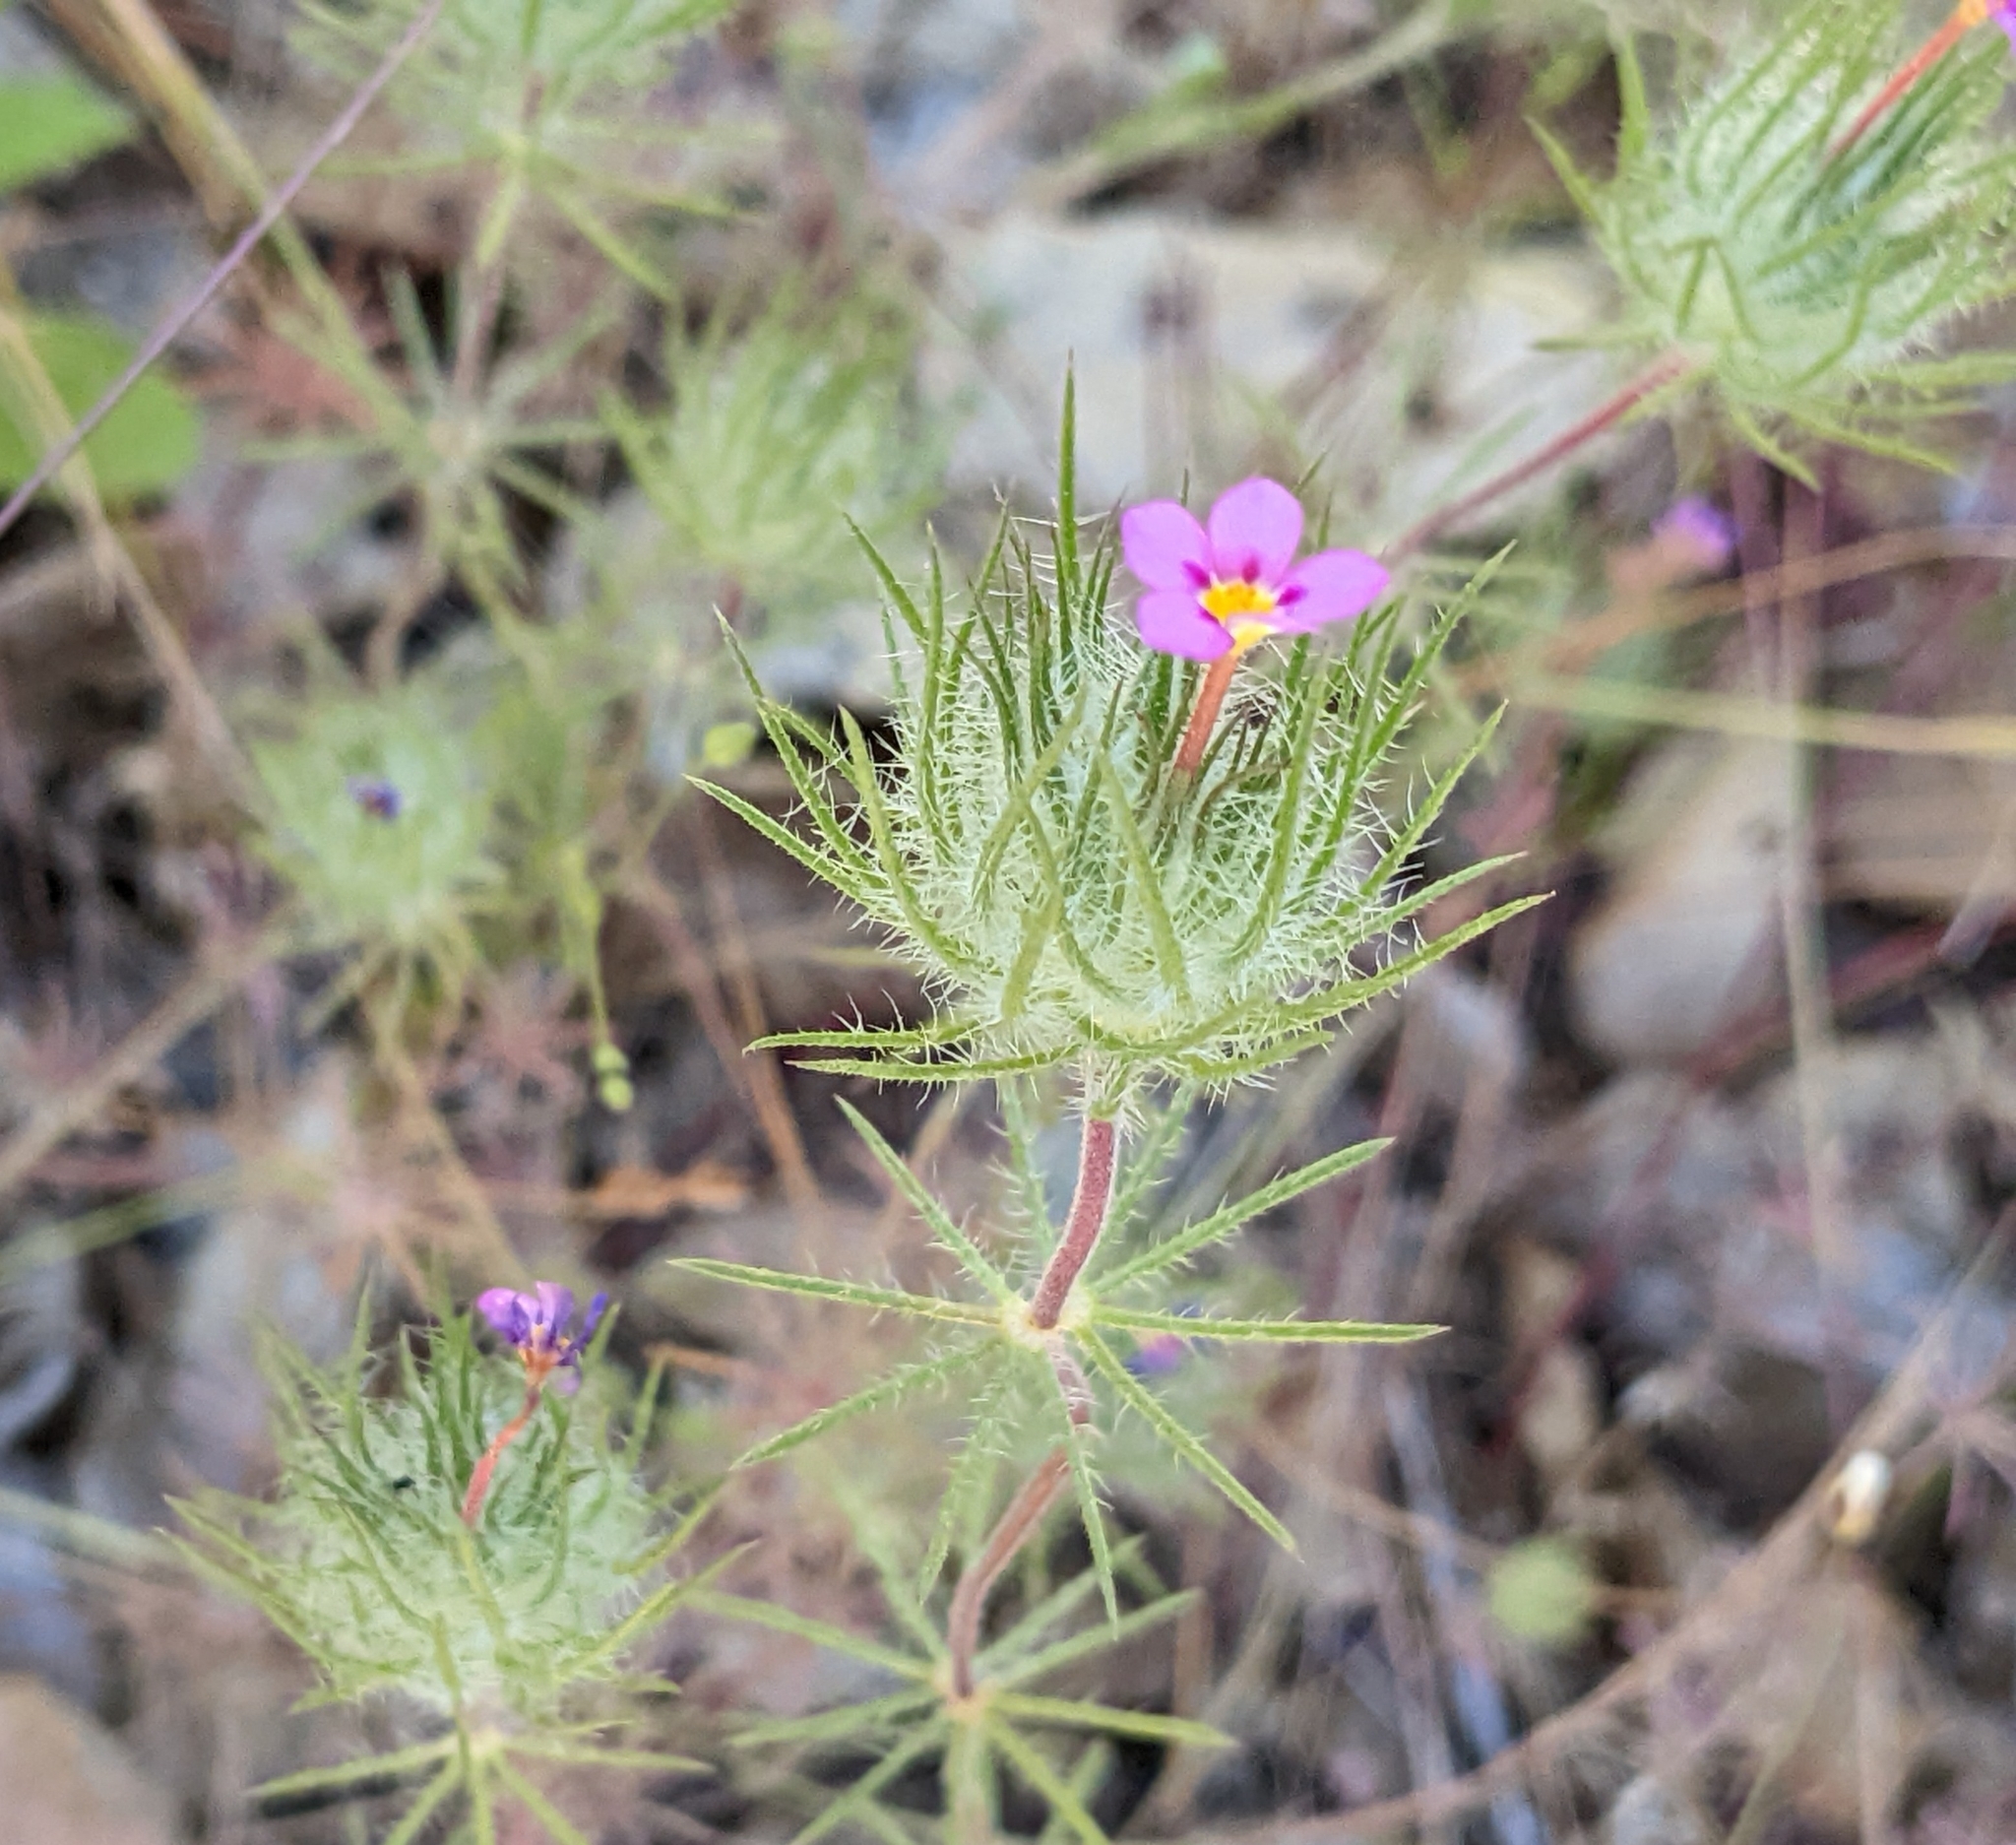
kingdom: Plantae
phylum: Tracheophyta
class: Magnoliopsida
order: Ericales
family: Polemoniaceae
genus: Leptosiphon
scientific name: Leptosiphon ciliatus
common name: Whiskerbrush
